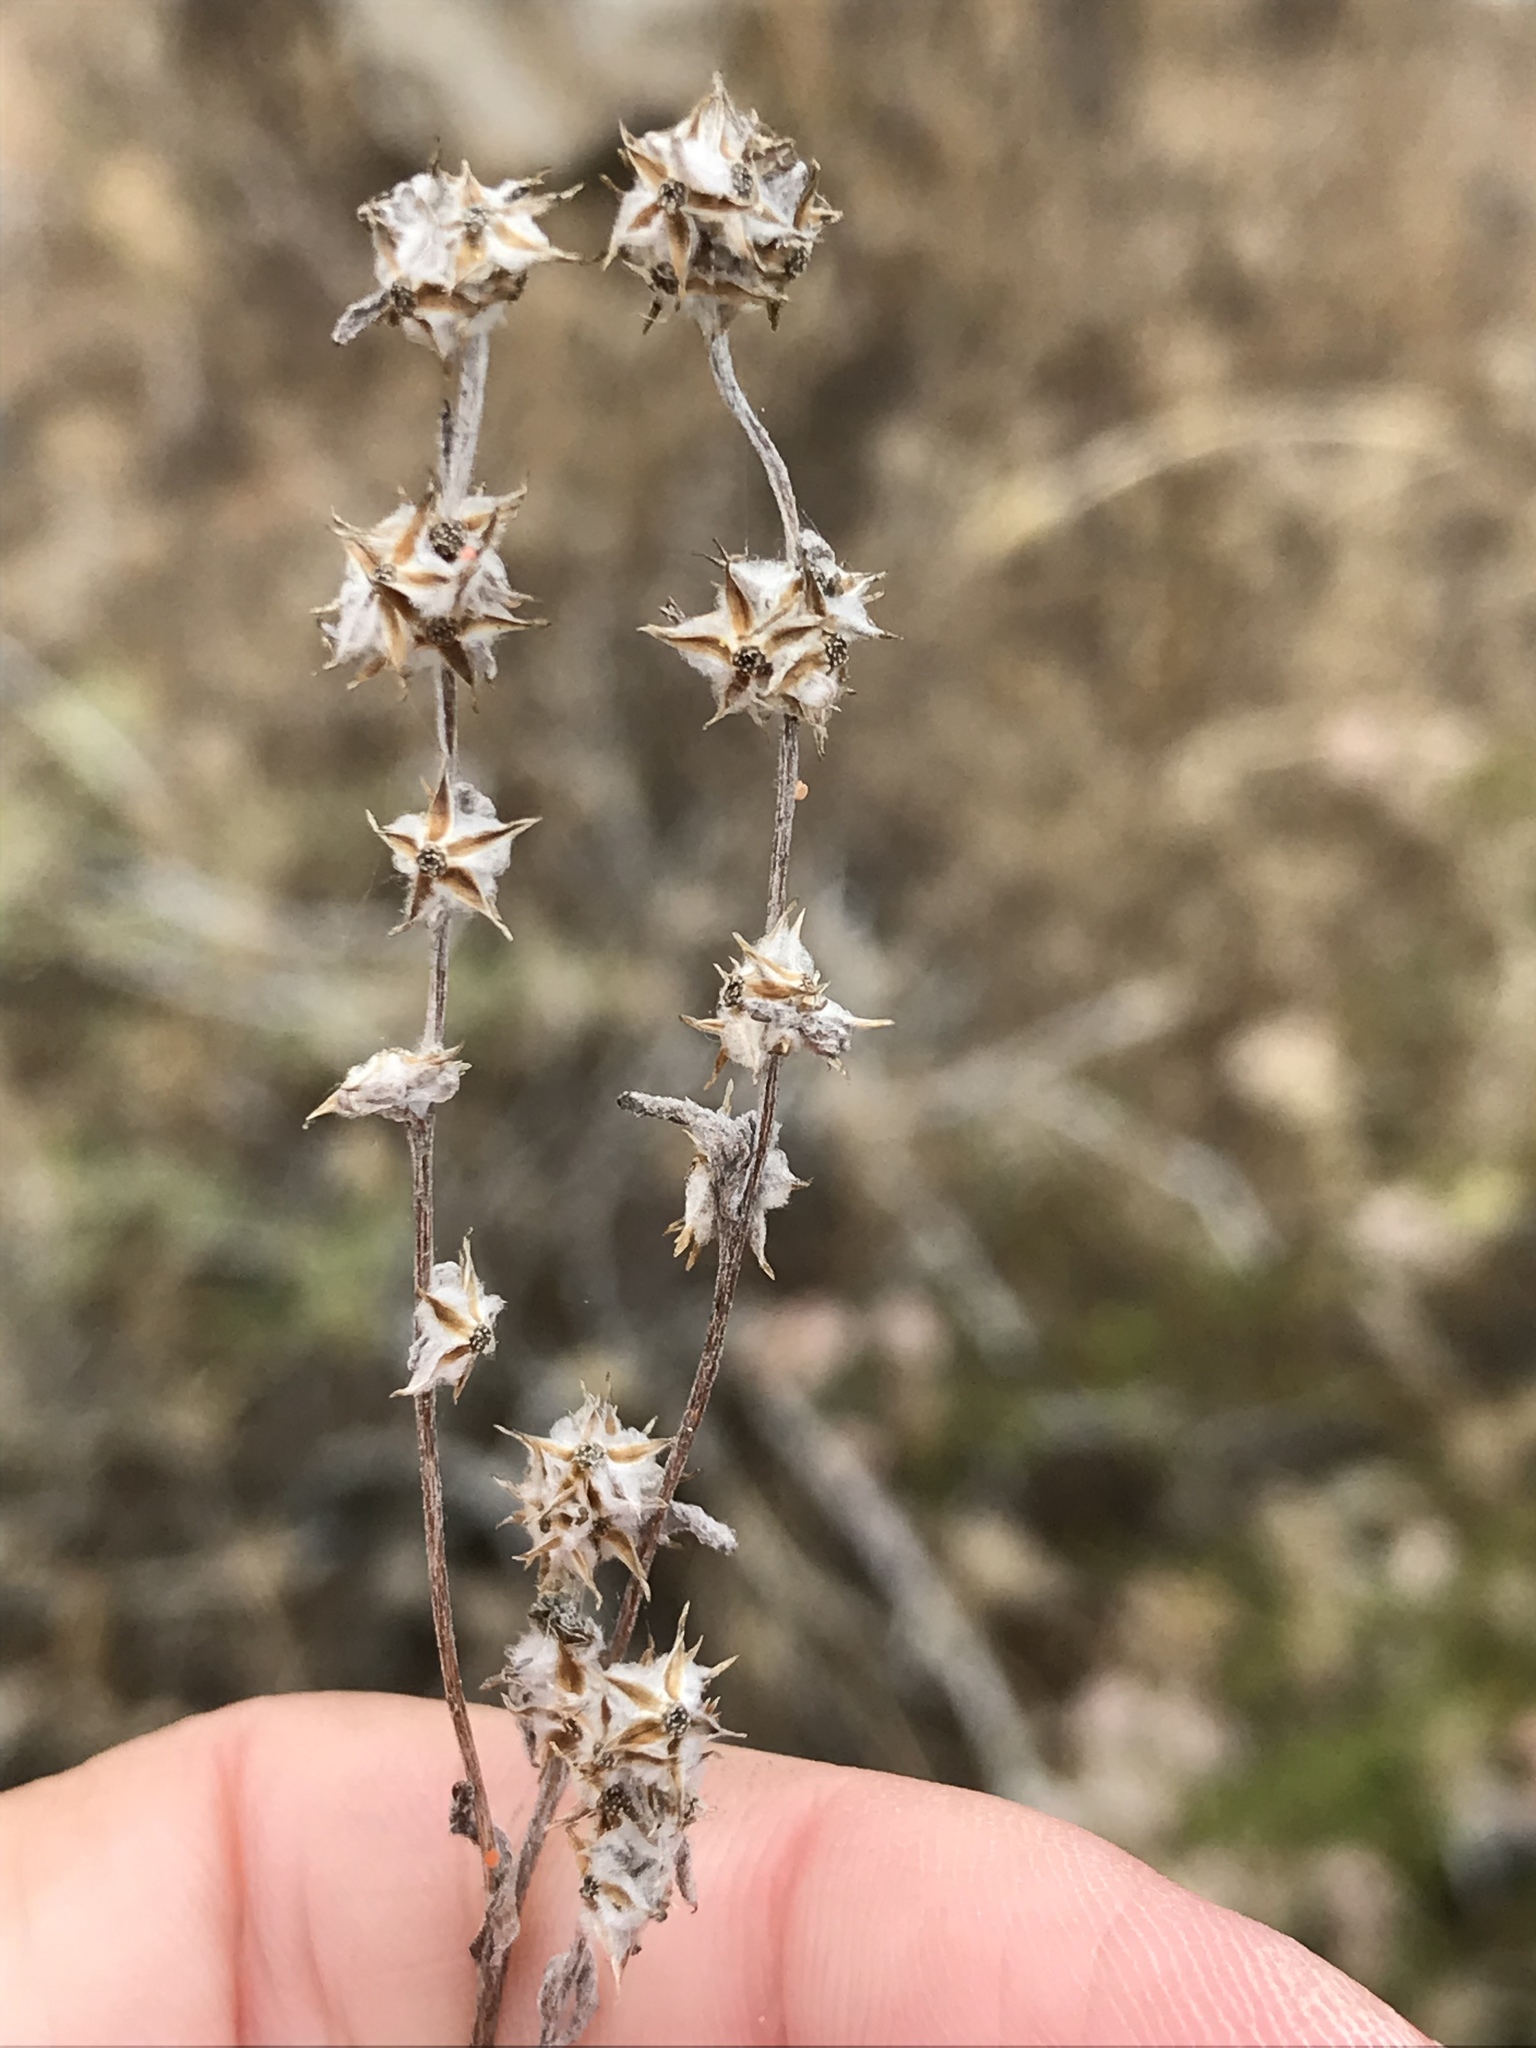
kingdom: Plantae
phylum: Tracheophyta
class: Magnoliopsida
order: Asterales
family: Asteraceae
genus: Logfia
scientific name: Logfia californica
